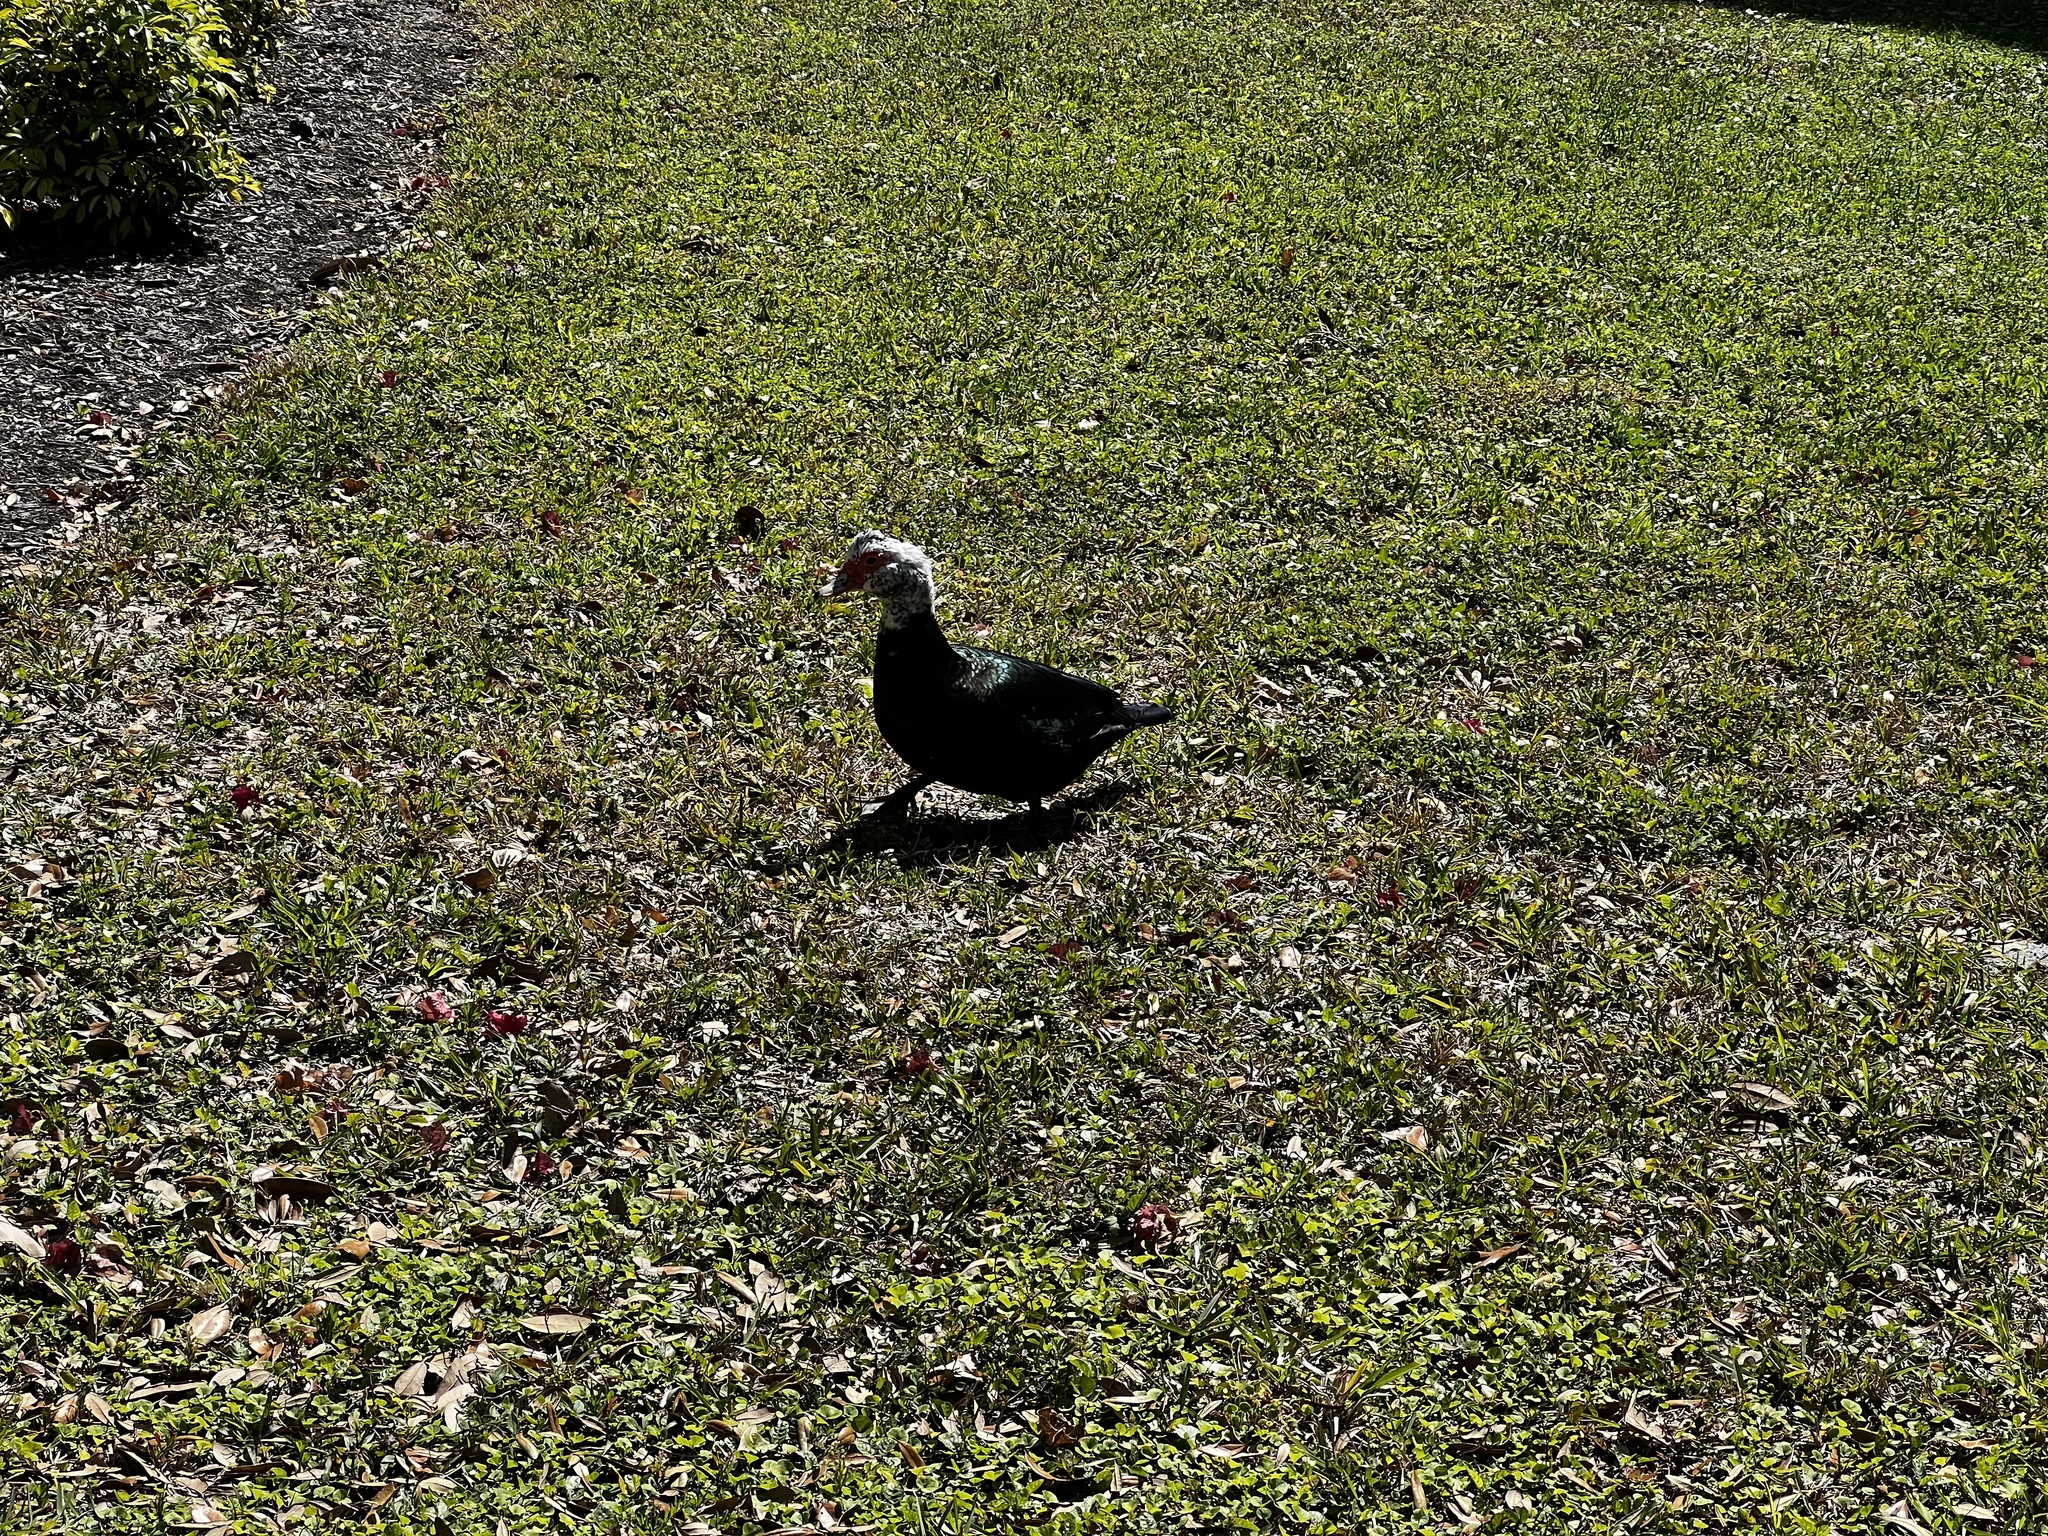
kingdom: Animalia
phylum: Chordata
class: Aves
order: Anseriformes
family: Anatidae
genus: Cairina
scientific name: Cairina moschata
